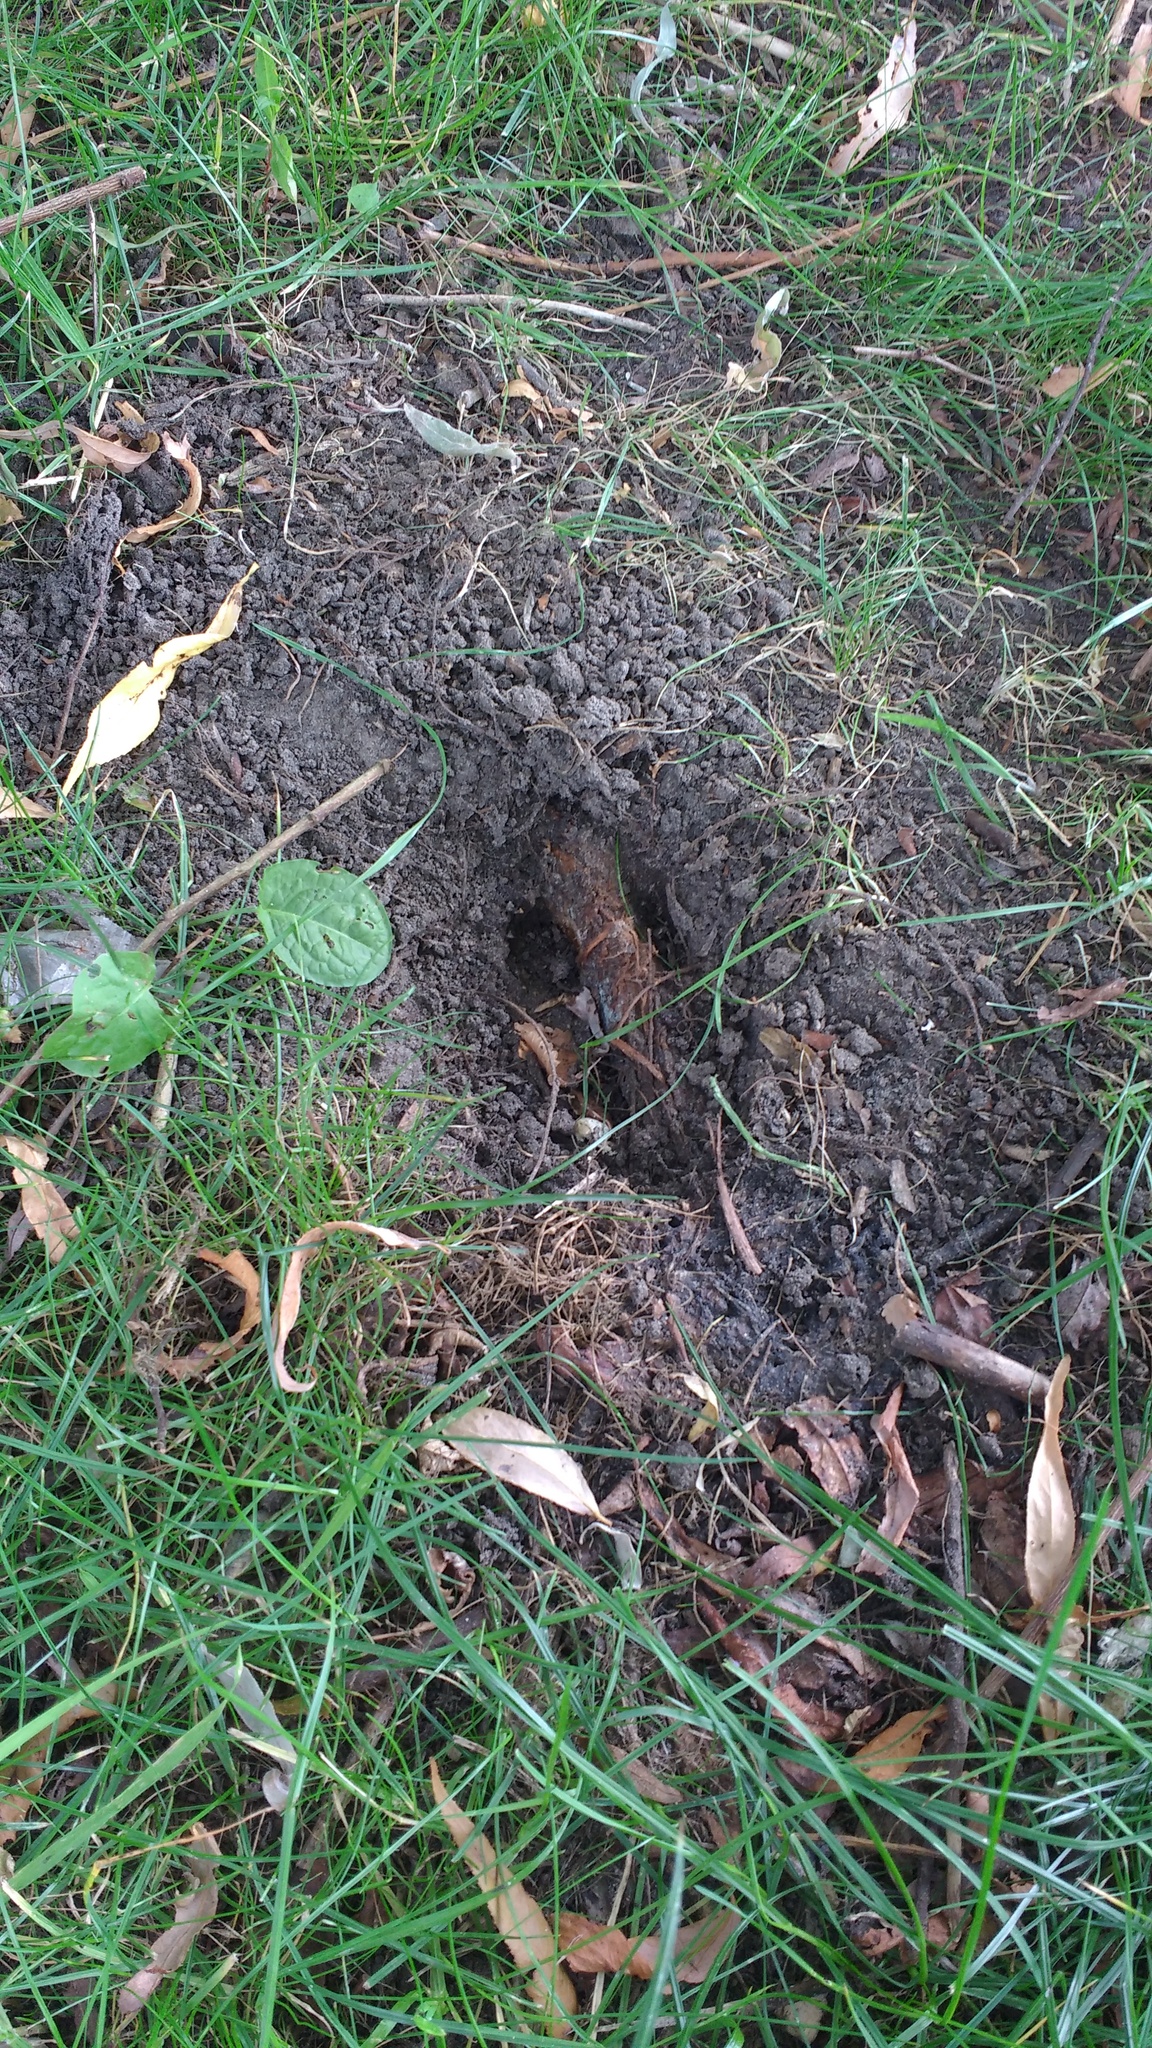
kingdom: Animalia
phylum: Arthropoda
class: Insecta
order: Hymenoptera
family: Vespidae
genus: Vespa
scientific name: Vespa crabro
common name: Hornet
